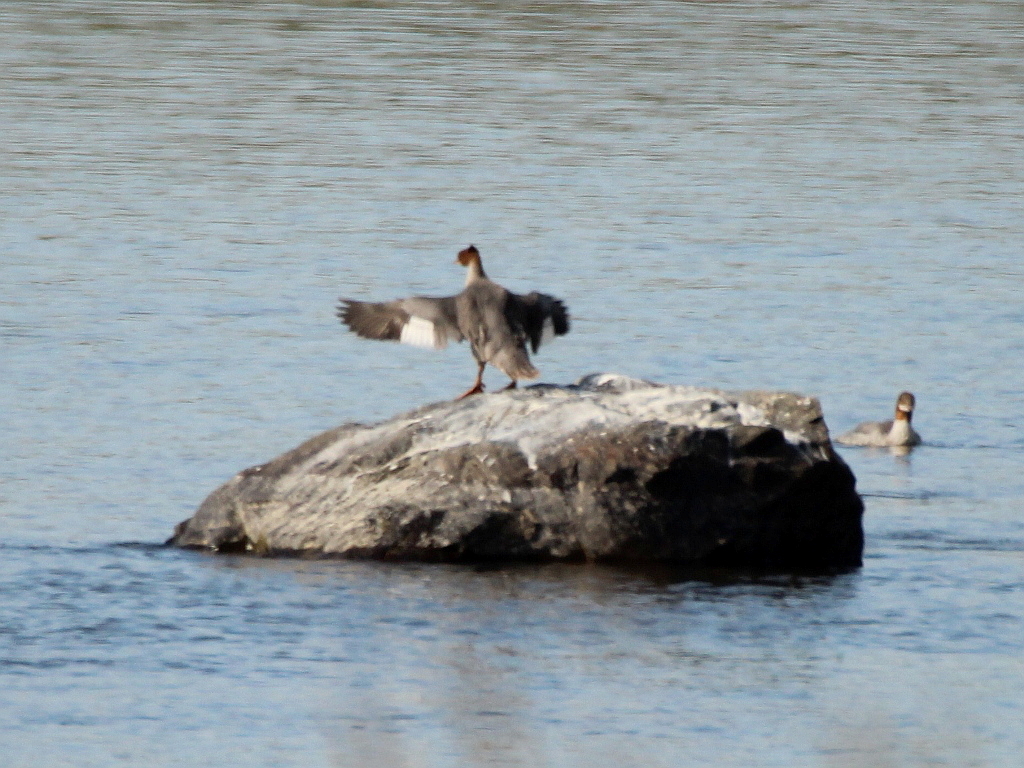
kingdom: Animalia
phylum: Chordata
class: Aves
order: Anseriformes
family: Anatidae
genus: Mergus
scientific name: Mergus merganser
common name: Common merganser
